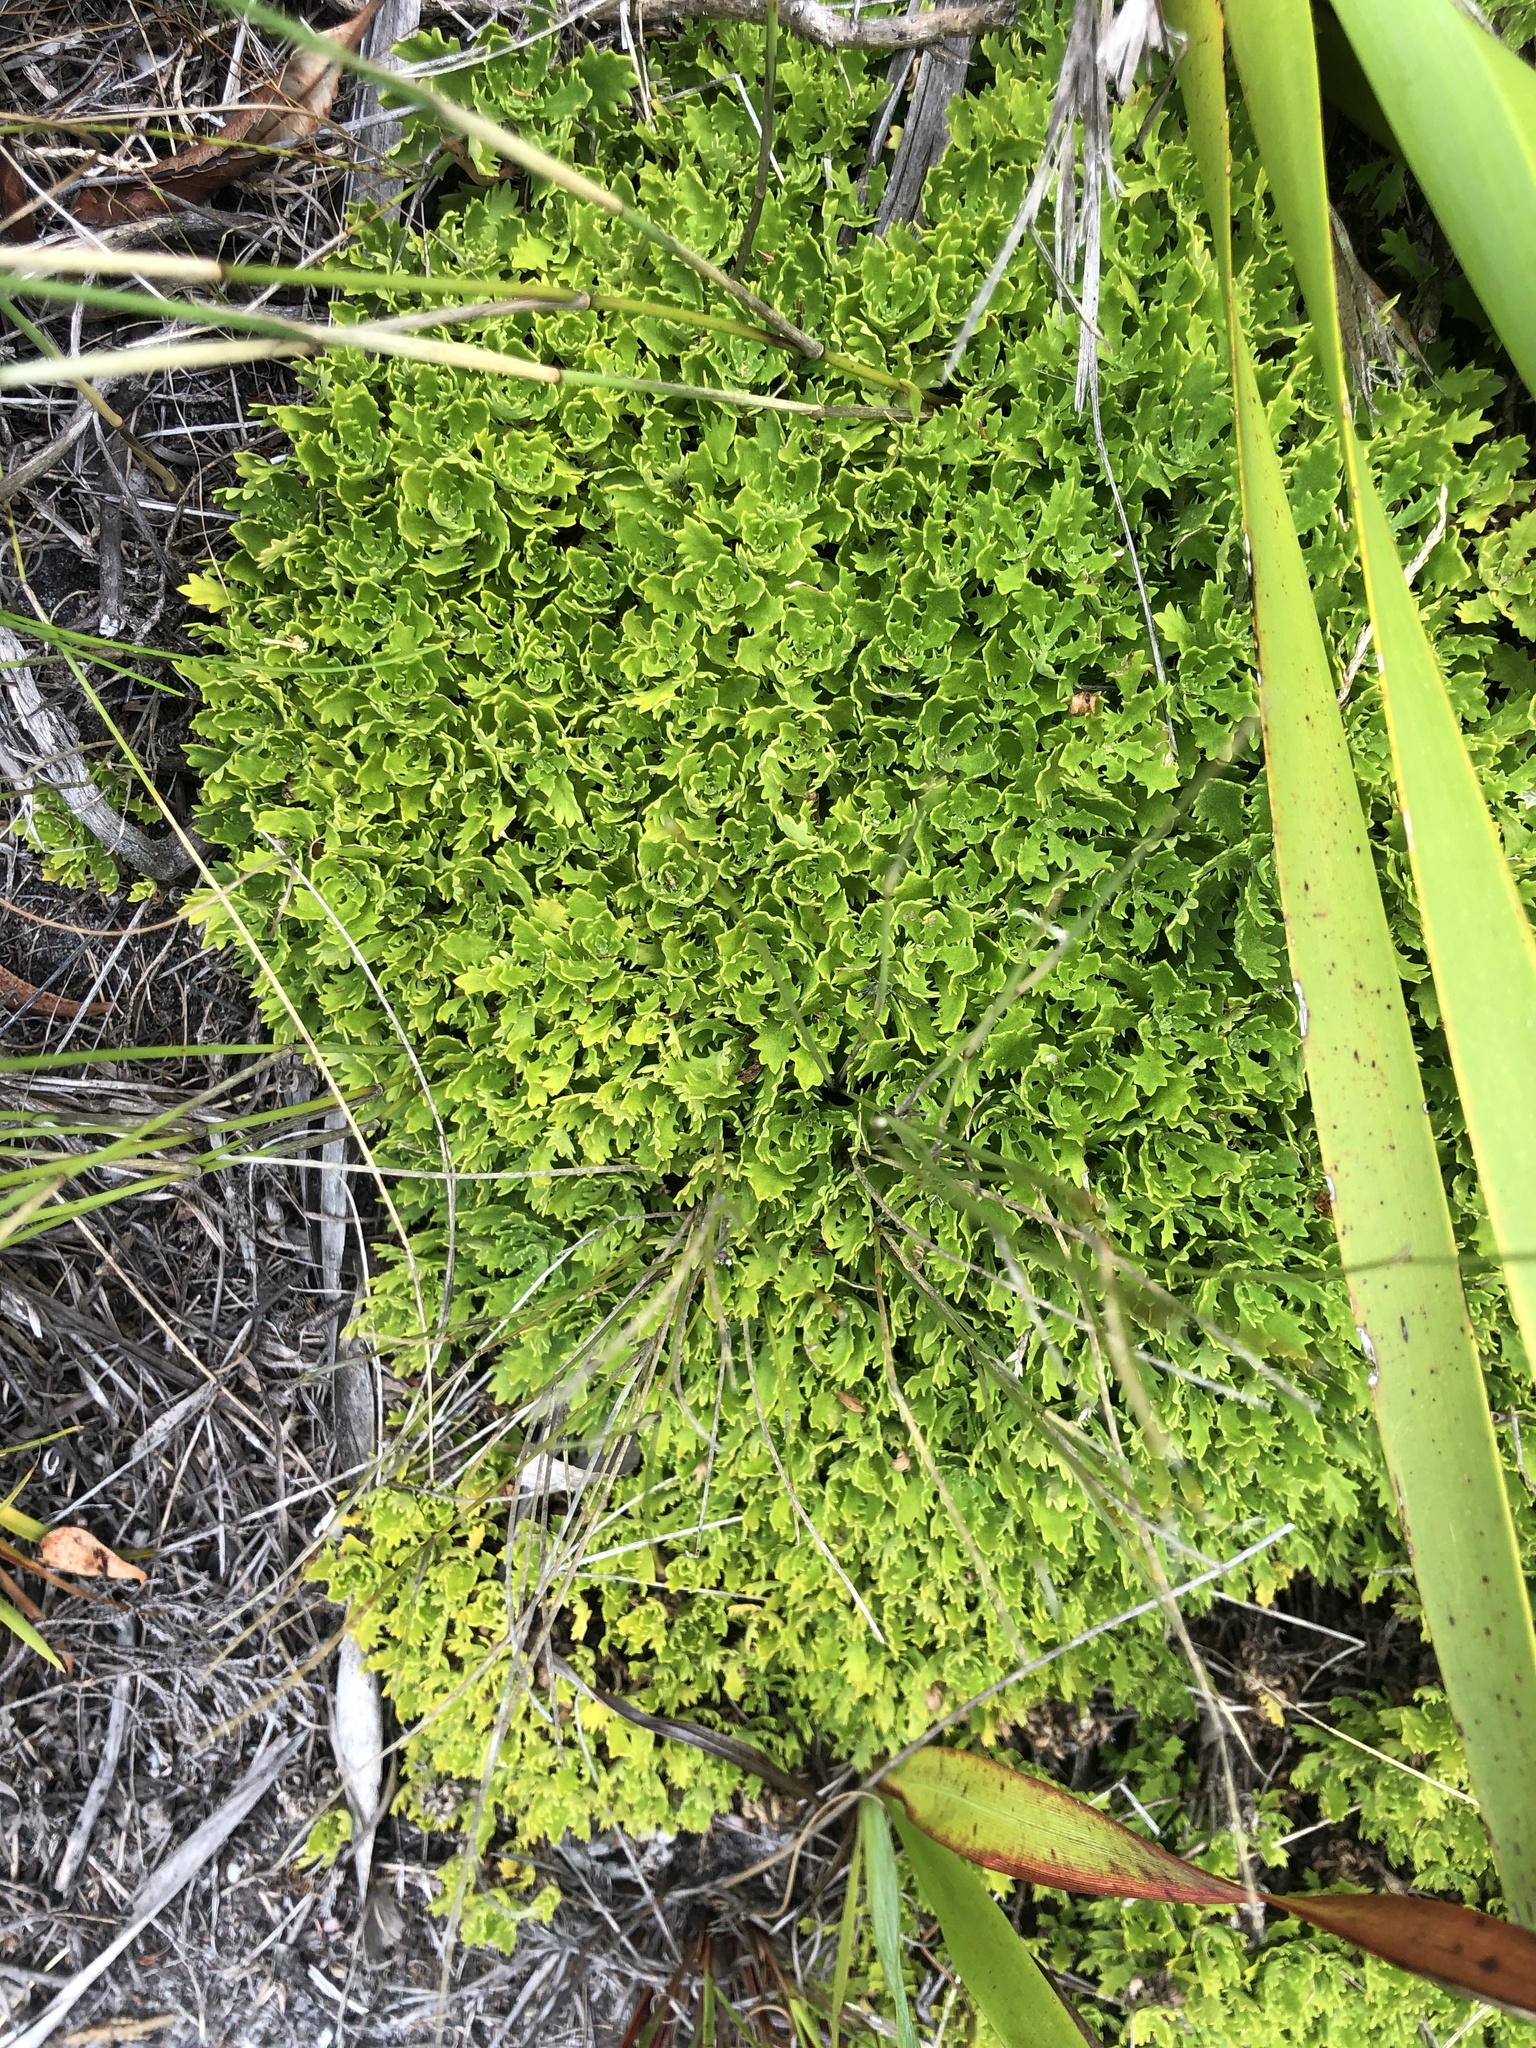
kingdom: Plantae
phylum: Tracheophyta
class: Magnoliopsida
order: Asterales
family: Asteraceae
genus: Osmitopsis
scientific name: Osmitopsis dentata
